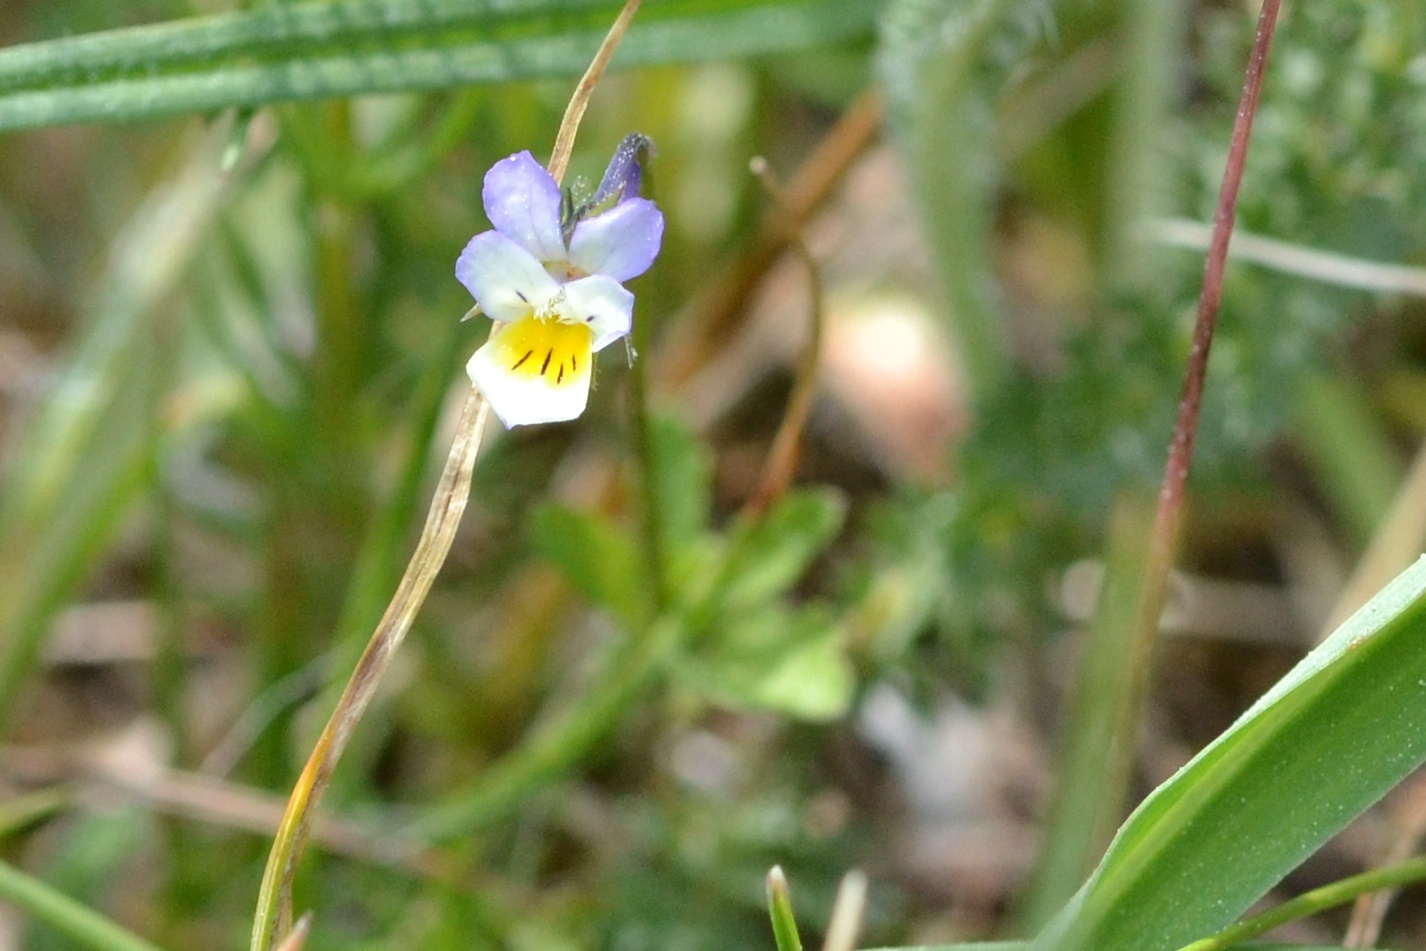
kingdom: Plantae
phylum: Tracheophyta
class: Magnoliopsida
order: Malpighiales
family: Violaceae
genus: Viola
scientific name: Viola arvensis
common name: Field pansy
